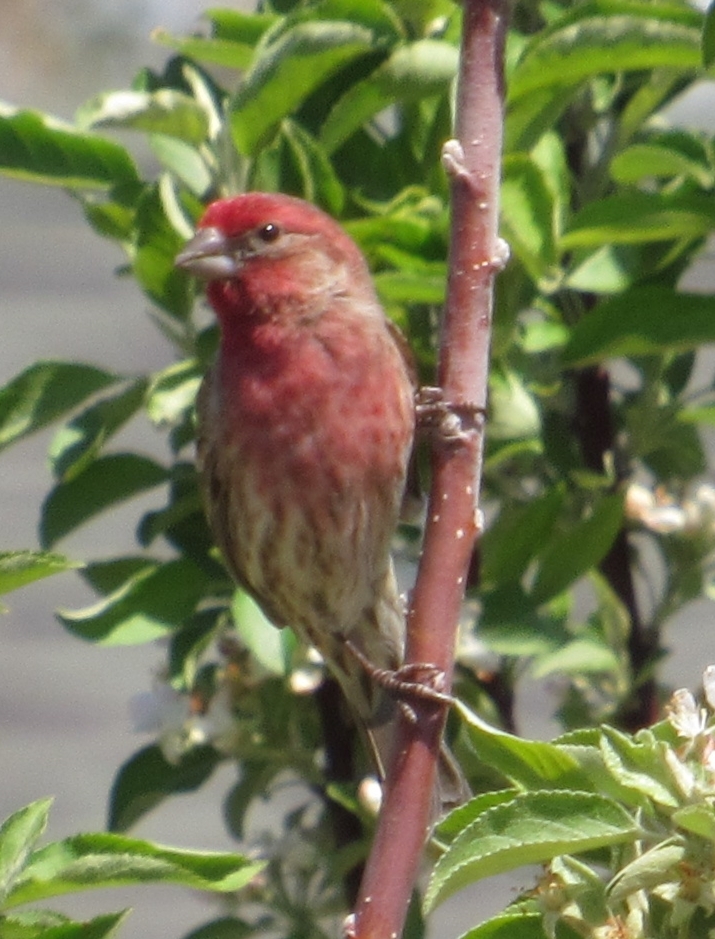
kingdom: Animalia
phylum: Chordata
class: Aves
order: Passeriformes
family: Fringillidae
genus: Haemorhous
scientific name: Haemorhous mexicanus
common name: House finch
